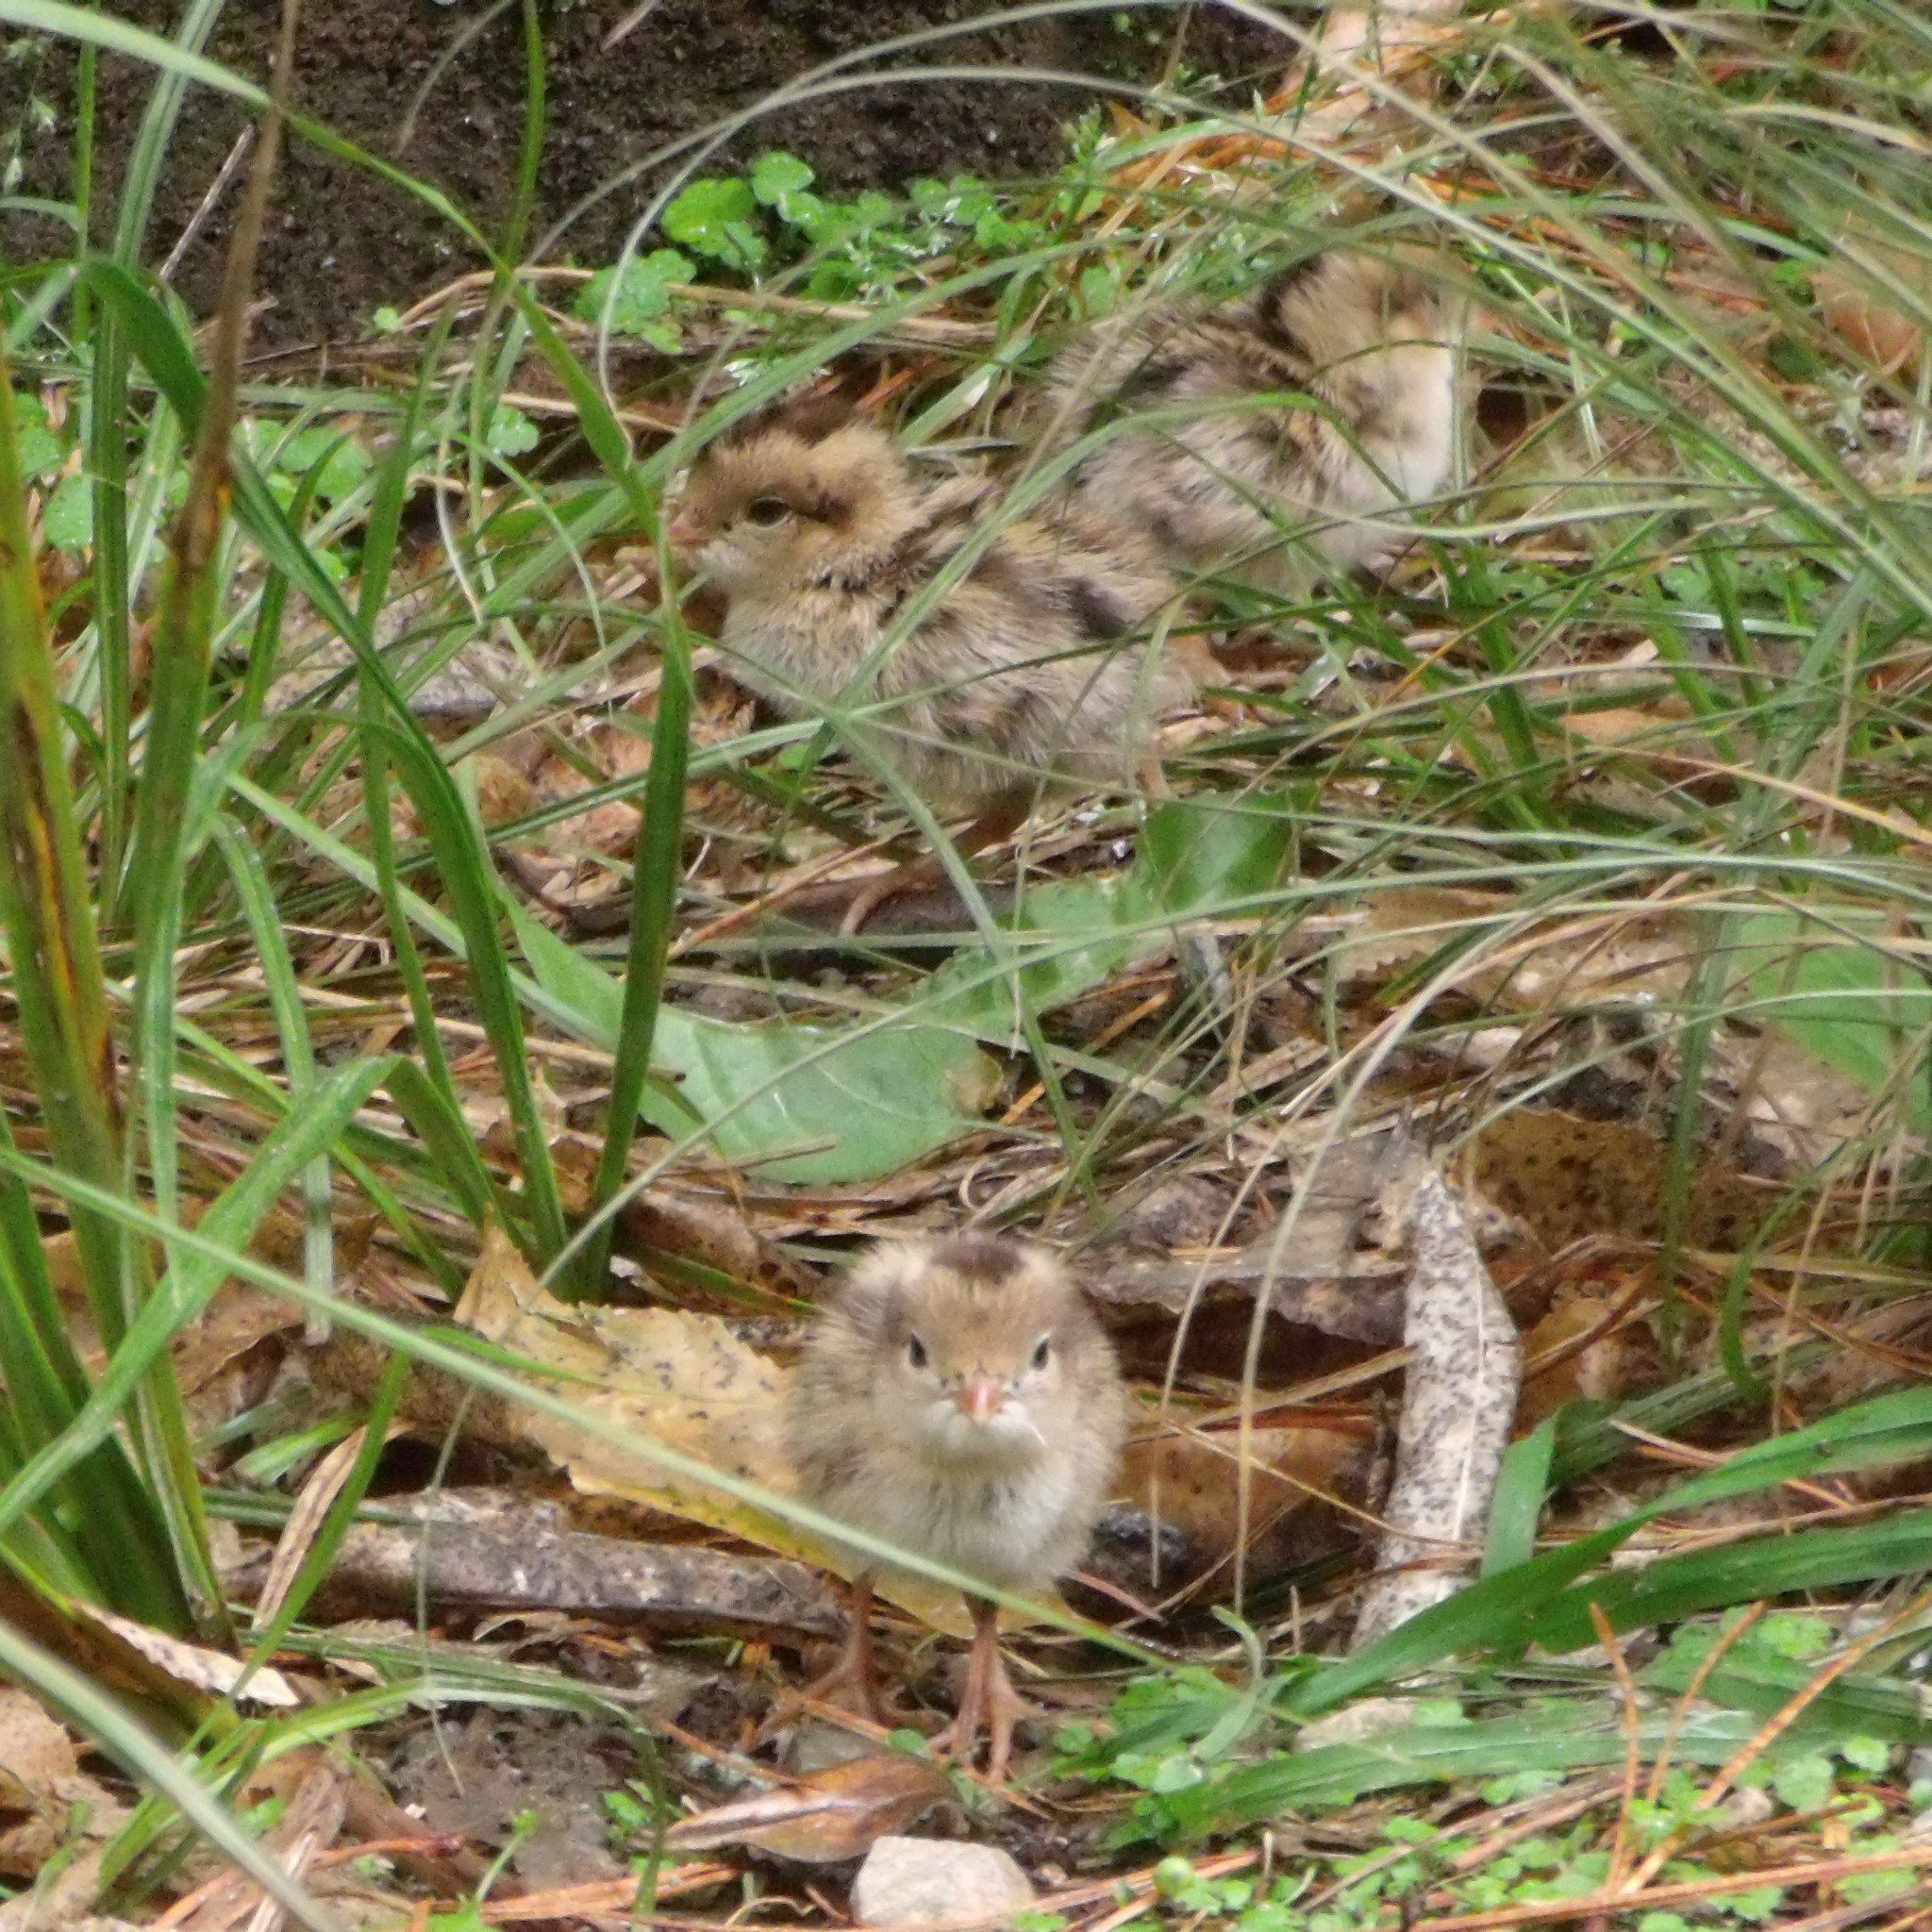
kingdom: Animalia
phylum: Chordata
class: Aves
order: Galliformes
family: Odontophoridae
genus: Callipepla
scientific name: Callipepla californica
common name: California quail
